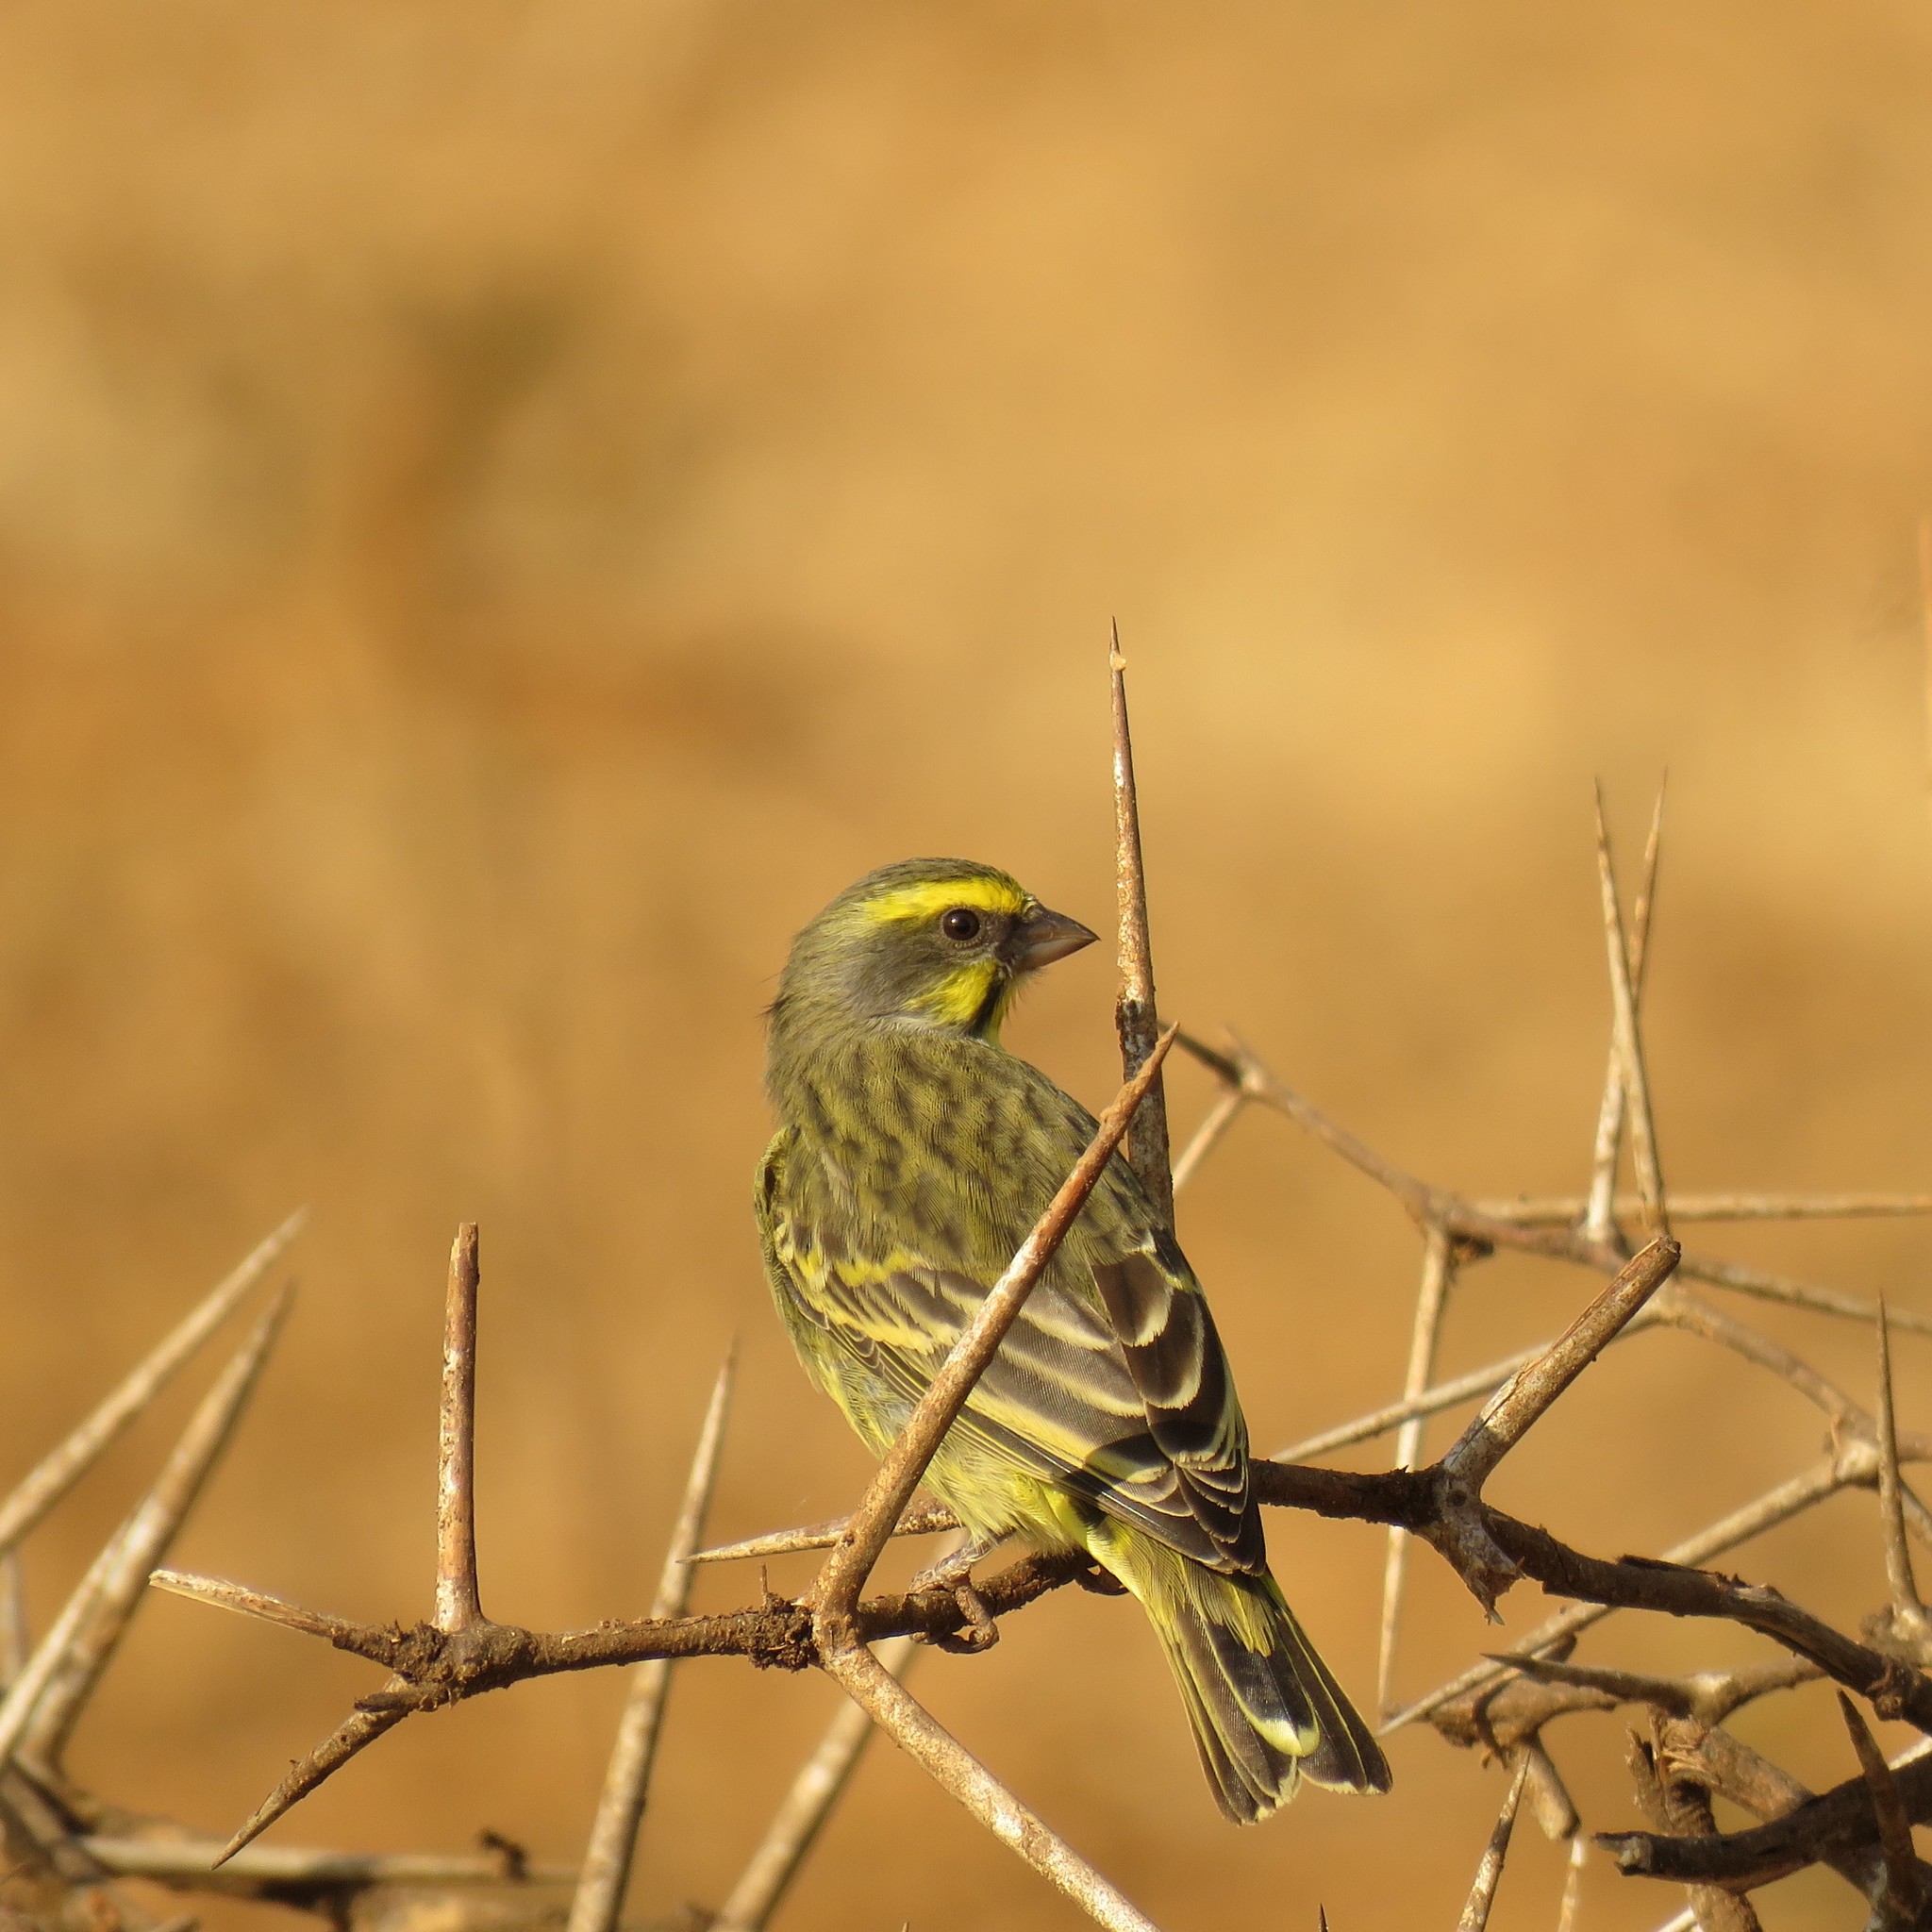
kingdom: Animalia
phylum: Chordata
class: Aves
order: Passeriformes
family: Fringillidae
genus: Crithagra
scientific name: Crithagra mozambica
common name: Yellow-fronted canary
